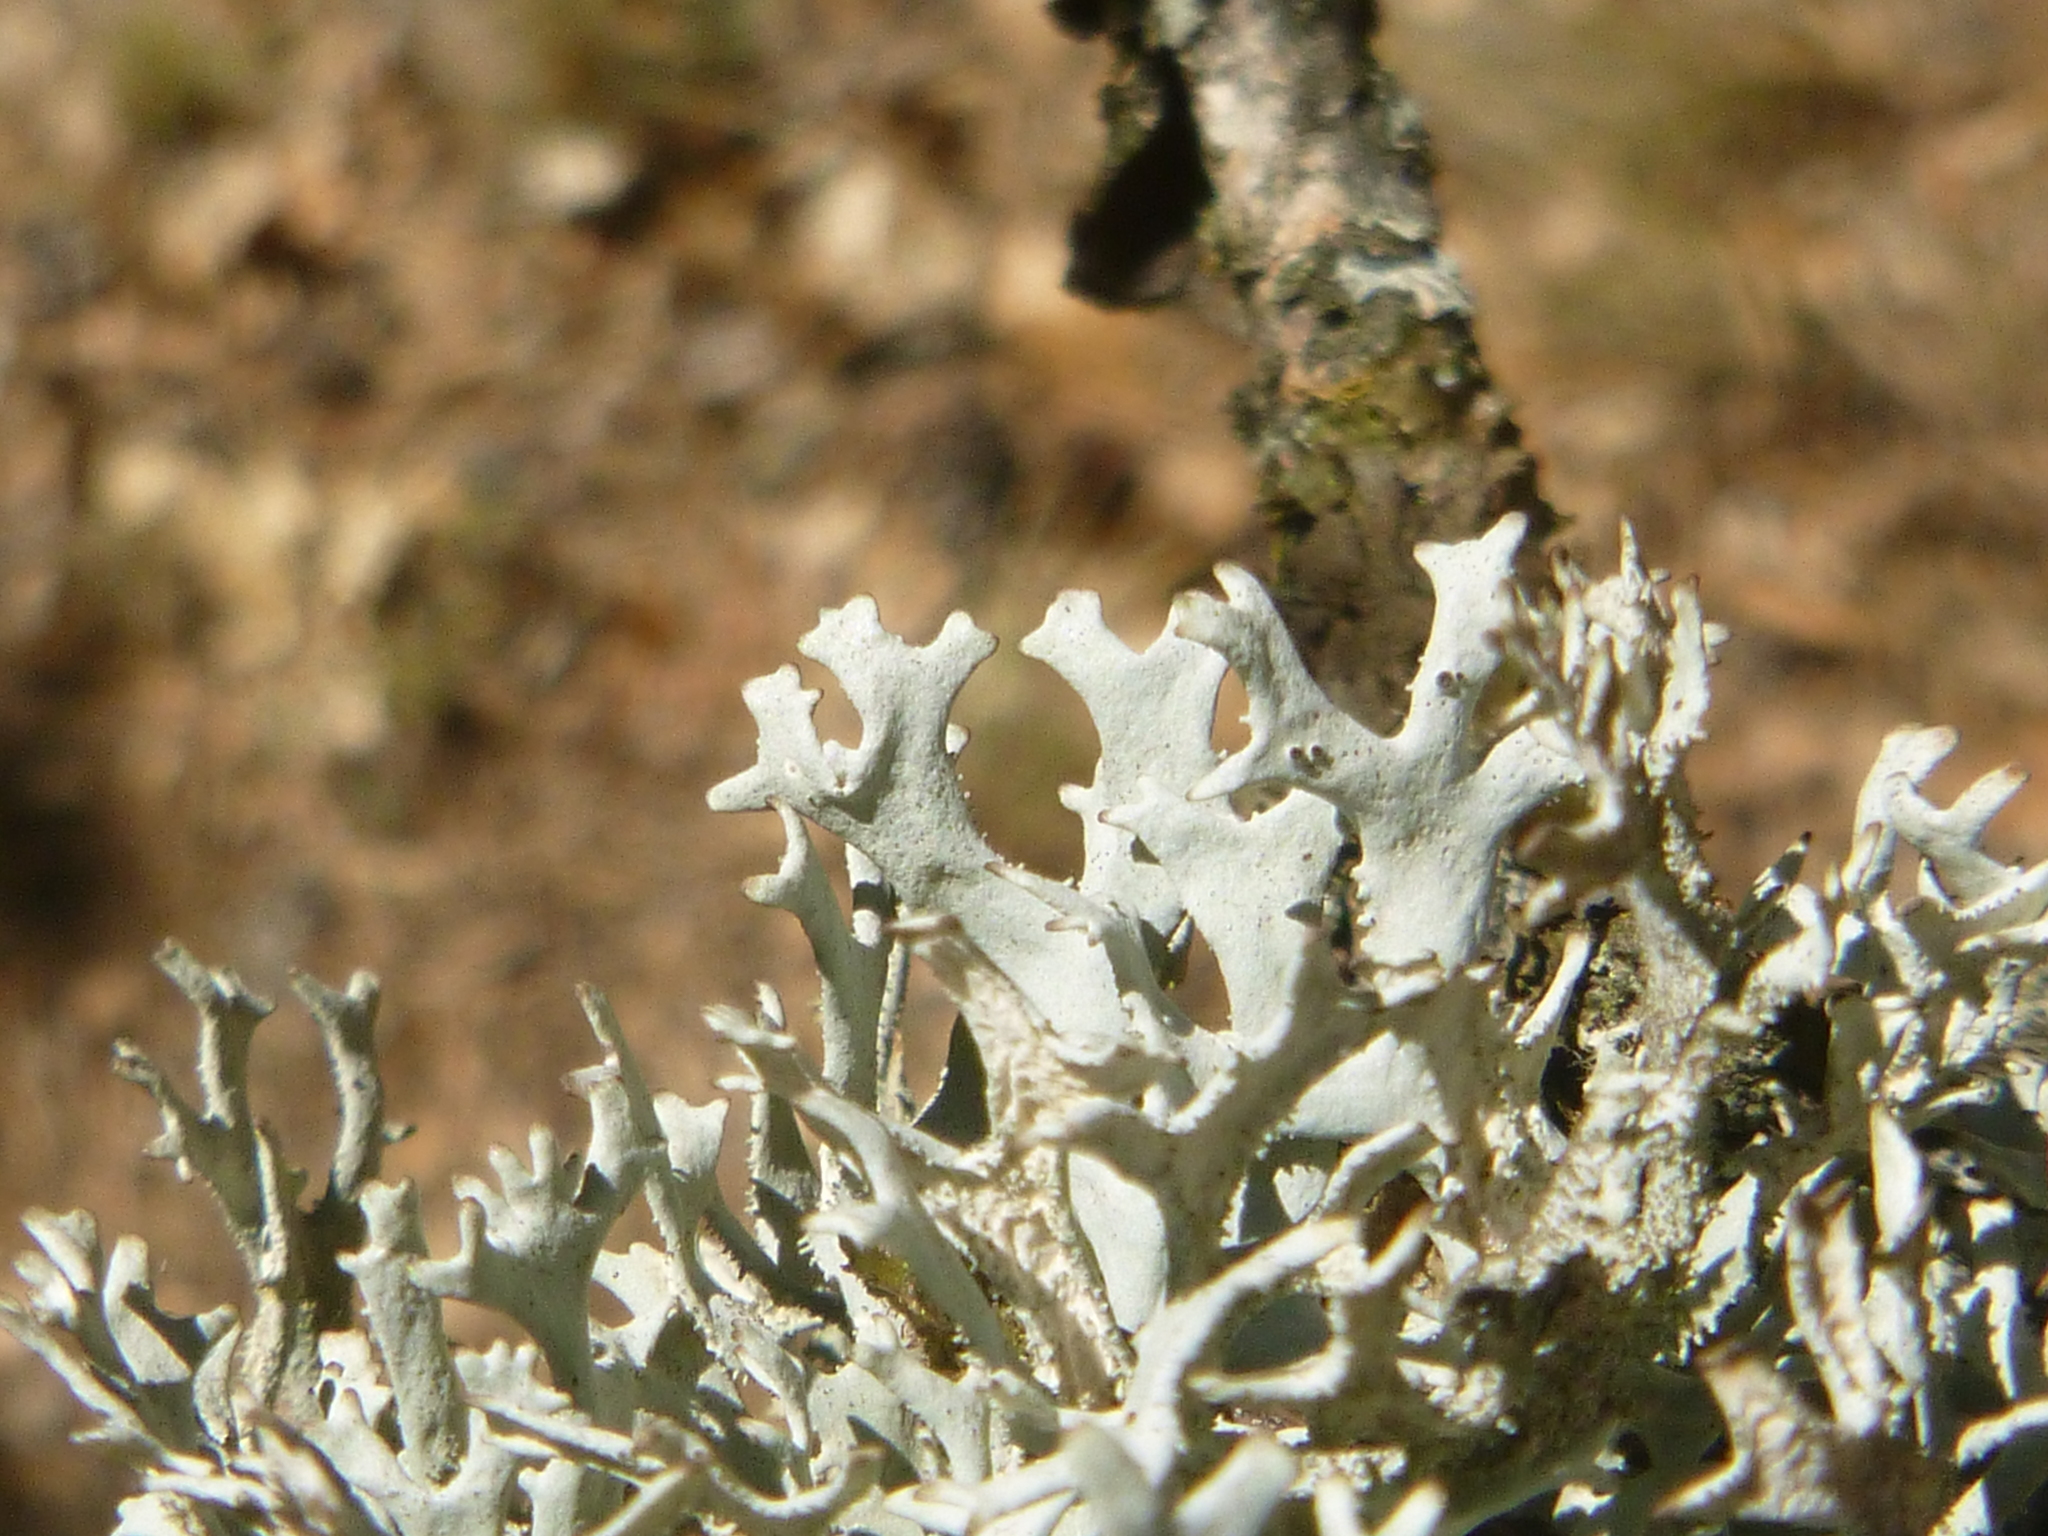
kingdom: Fungi
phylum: Ascomycota
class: Lecanoromycetes
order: Lecanorales
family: Parmeliaceae
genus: Pseudevernia
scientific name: Pseudevernia furfuracea
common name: Tree moss
